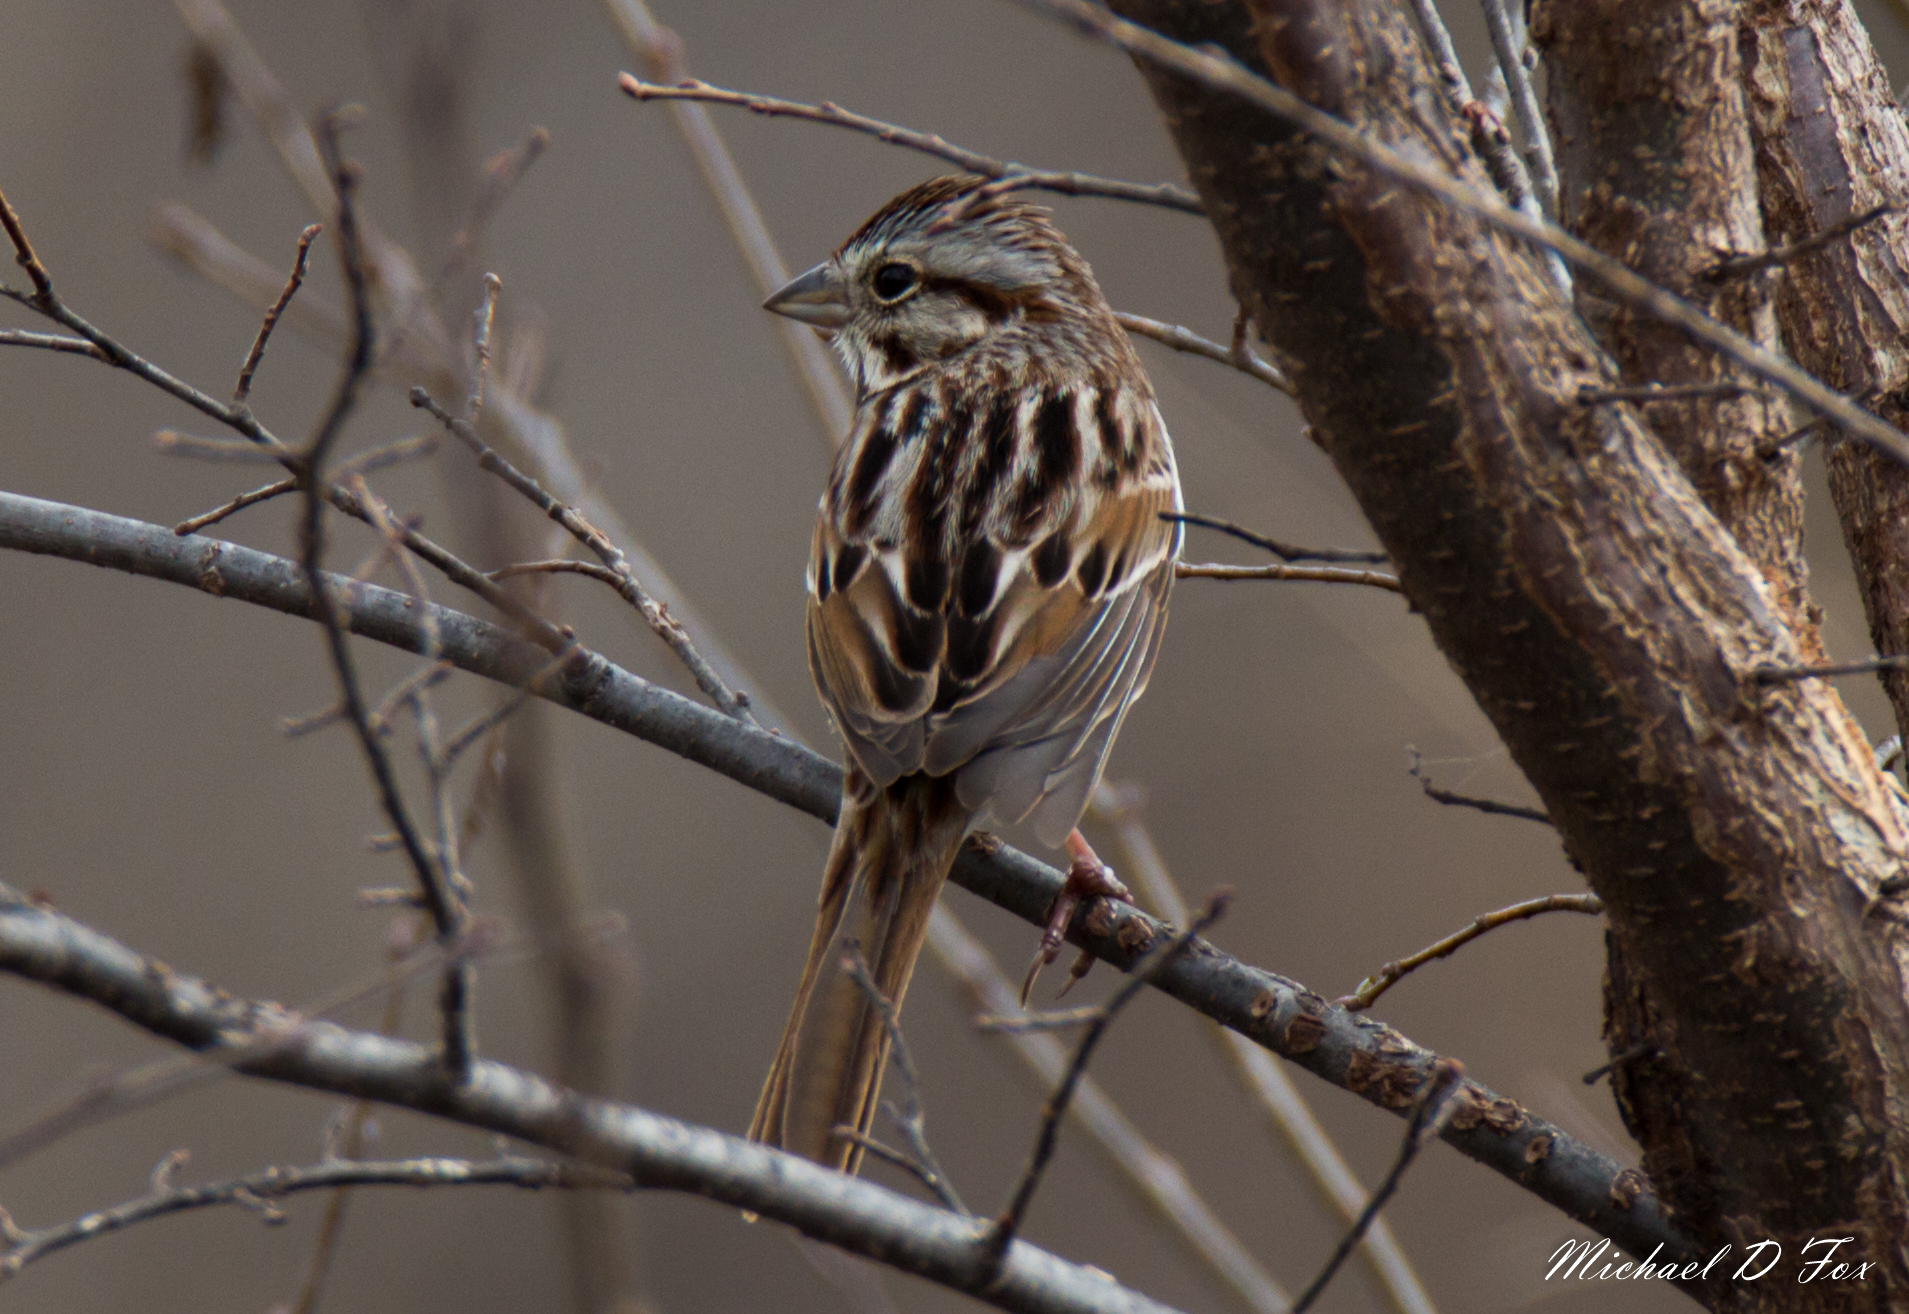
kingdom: Animalia
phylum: Chordata
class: Aves
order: Passeriformes
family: Passerellidae
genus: Melospiza
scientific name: Melospiza melodia
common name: Song sparrow
